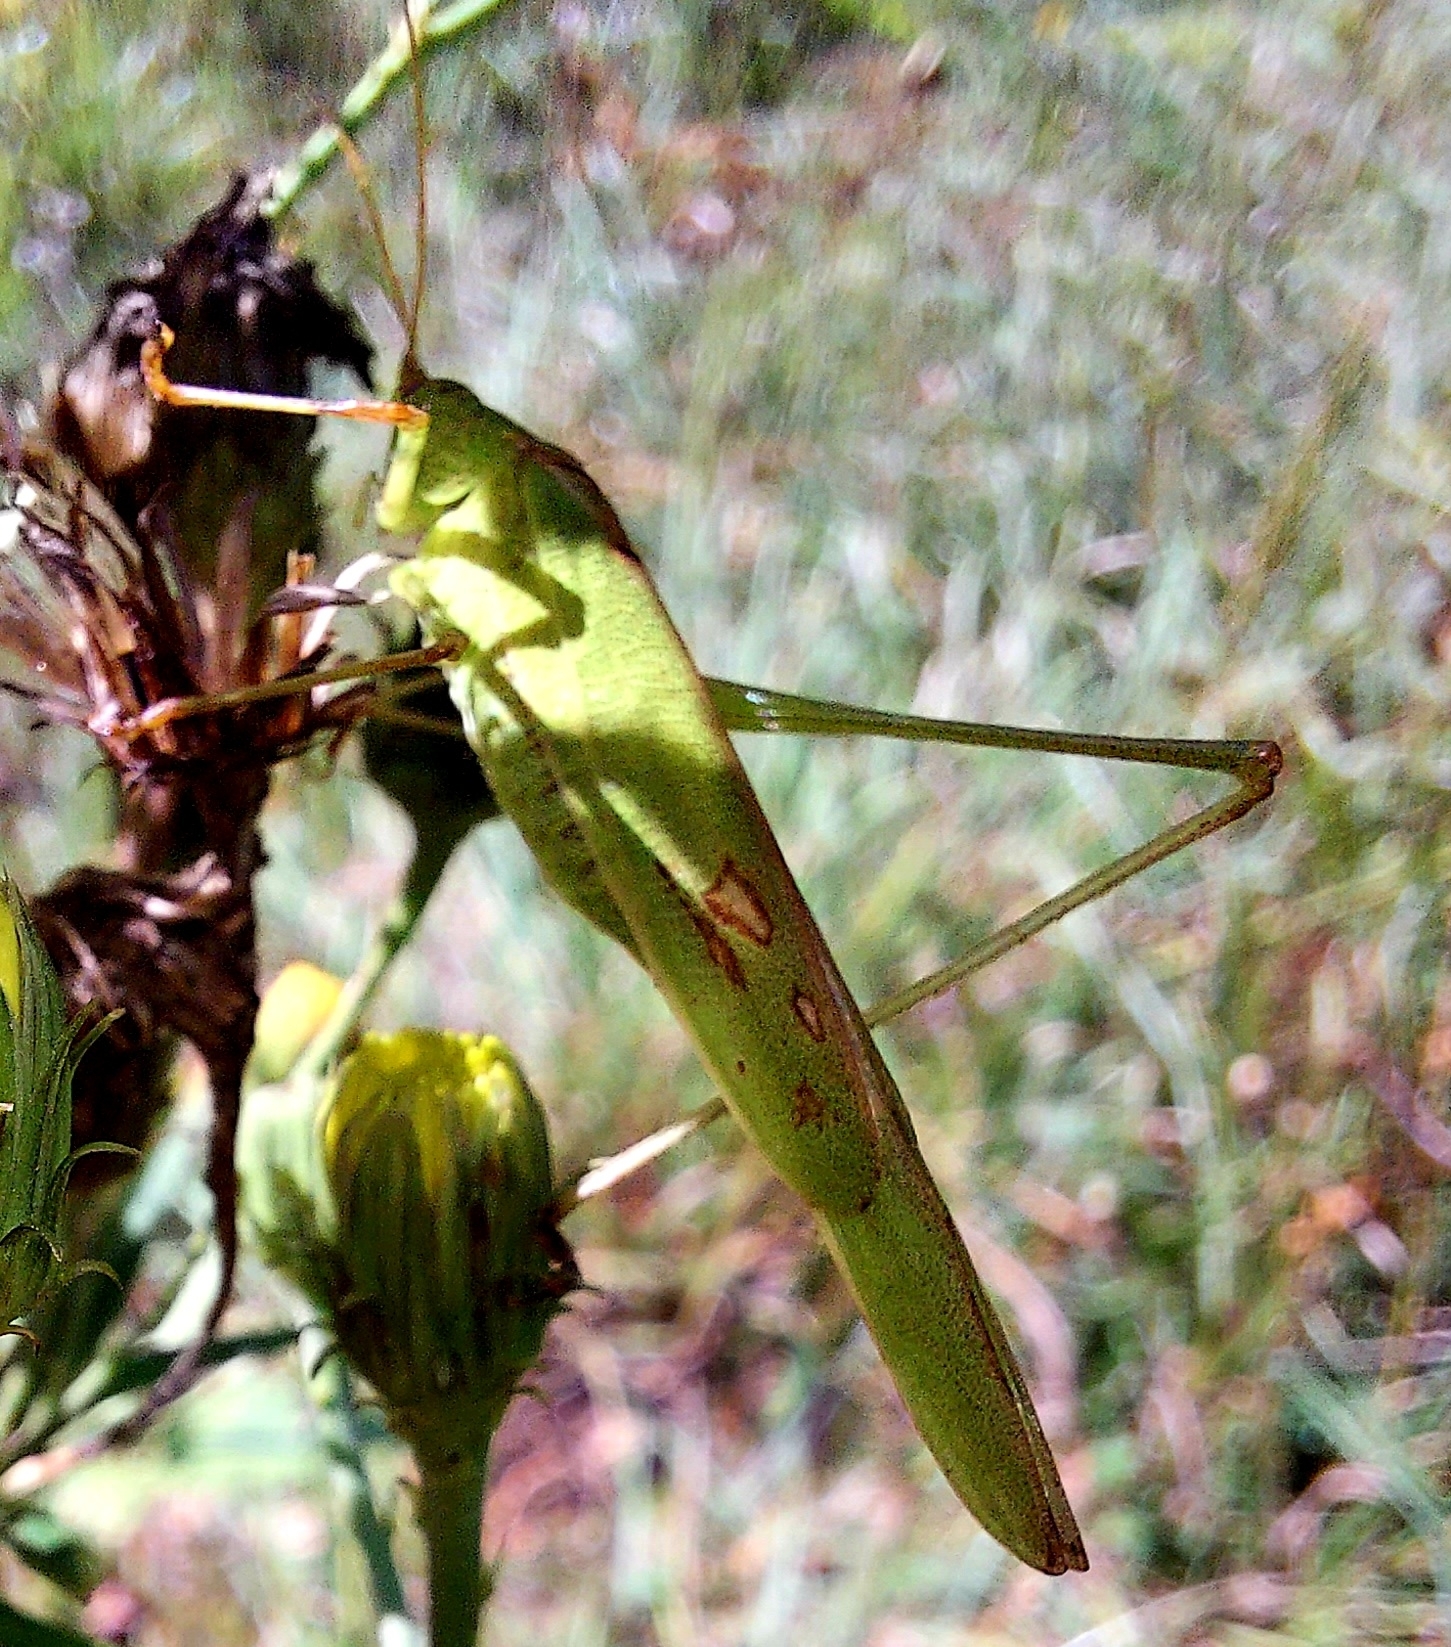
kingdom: Animalia
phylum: Arthropoda
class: Insecta
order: Orthoptera
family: Tettigoniidae
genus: Phaneroptera
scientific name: Phaneroptera falcata
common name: Sickle-bearing bush-cricket
